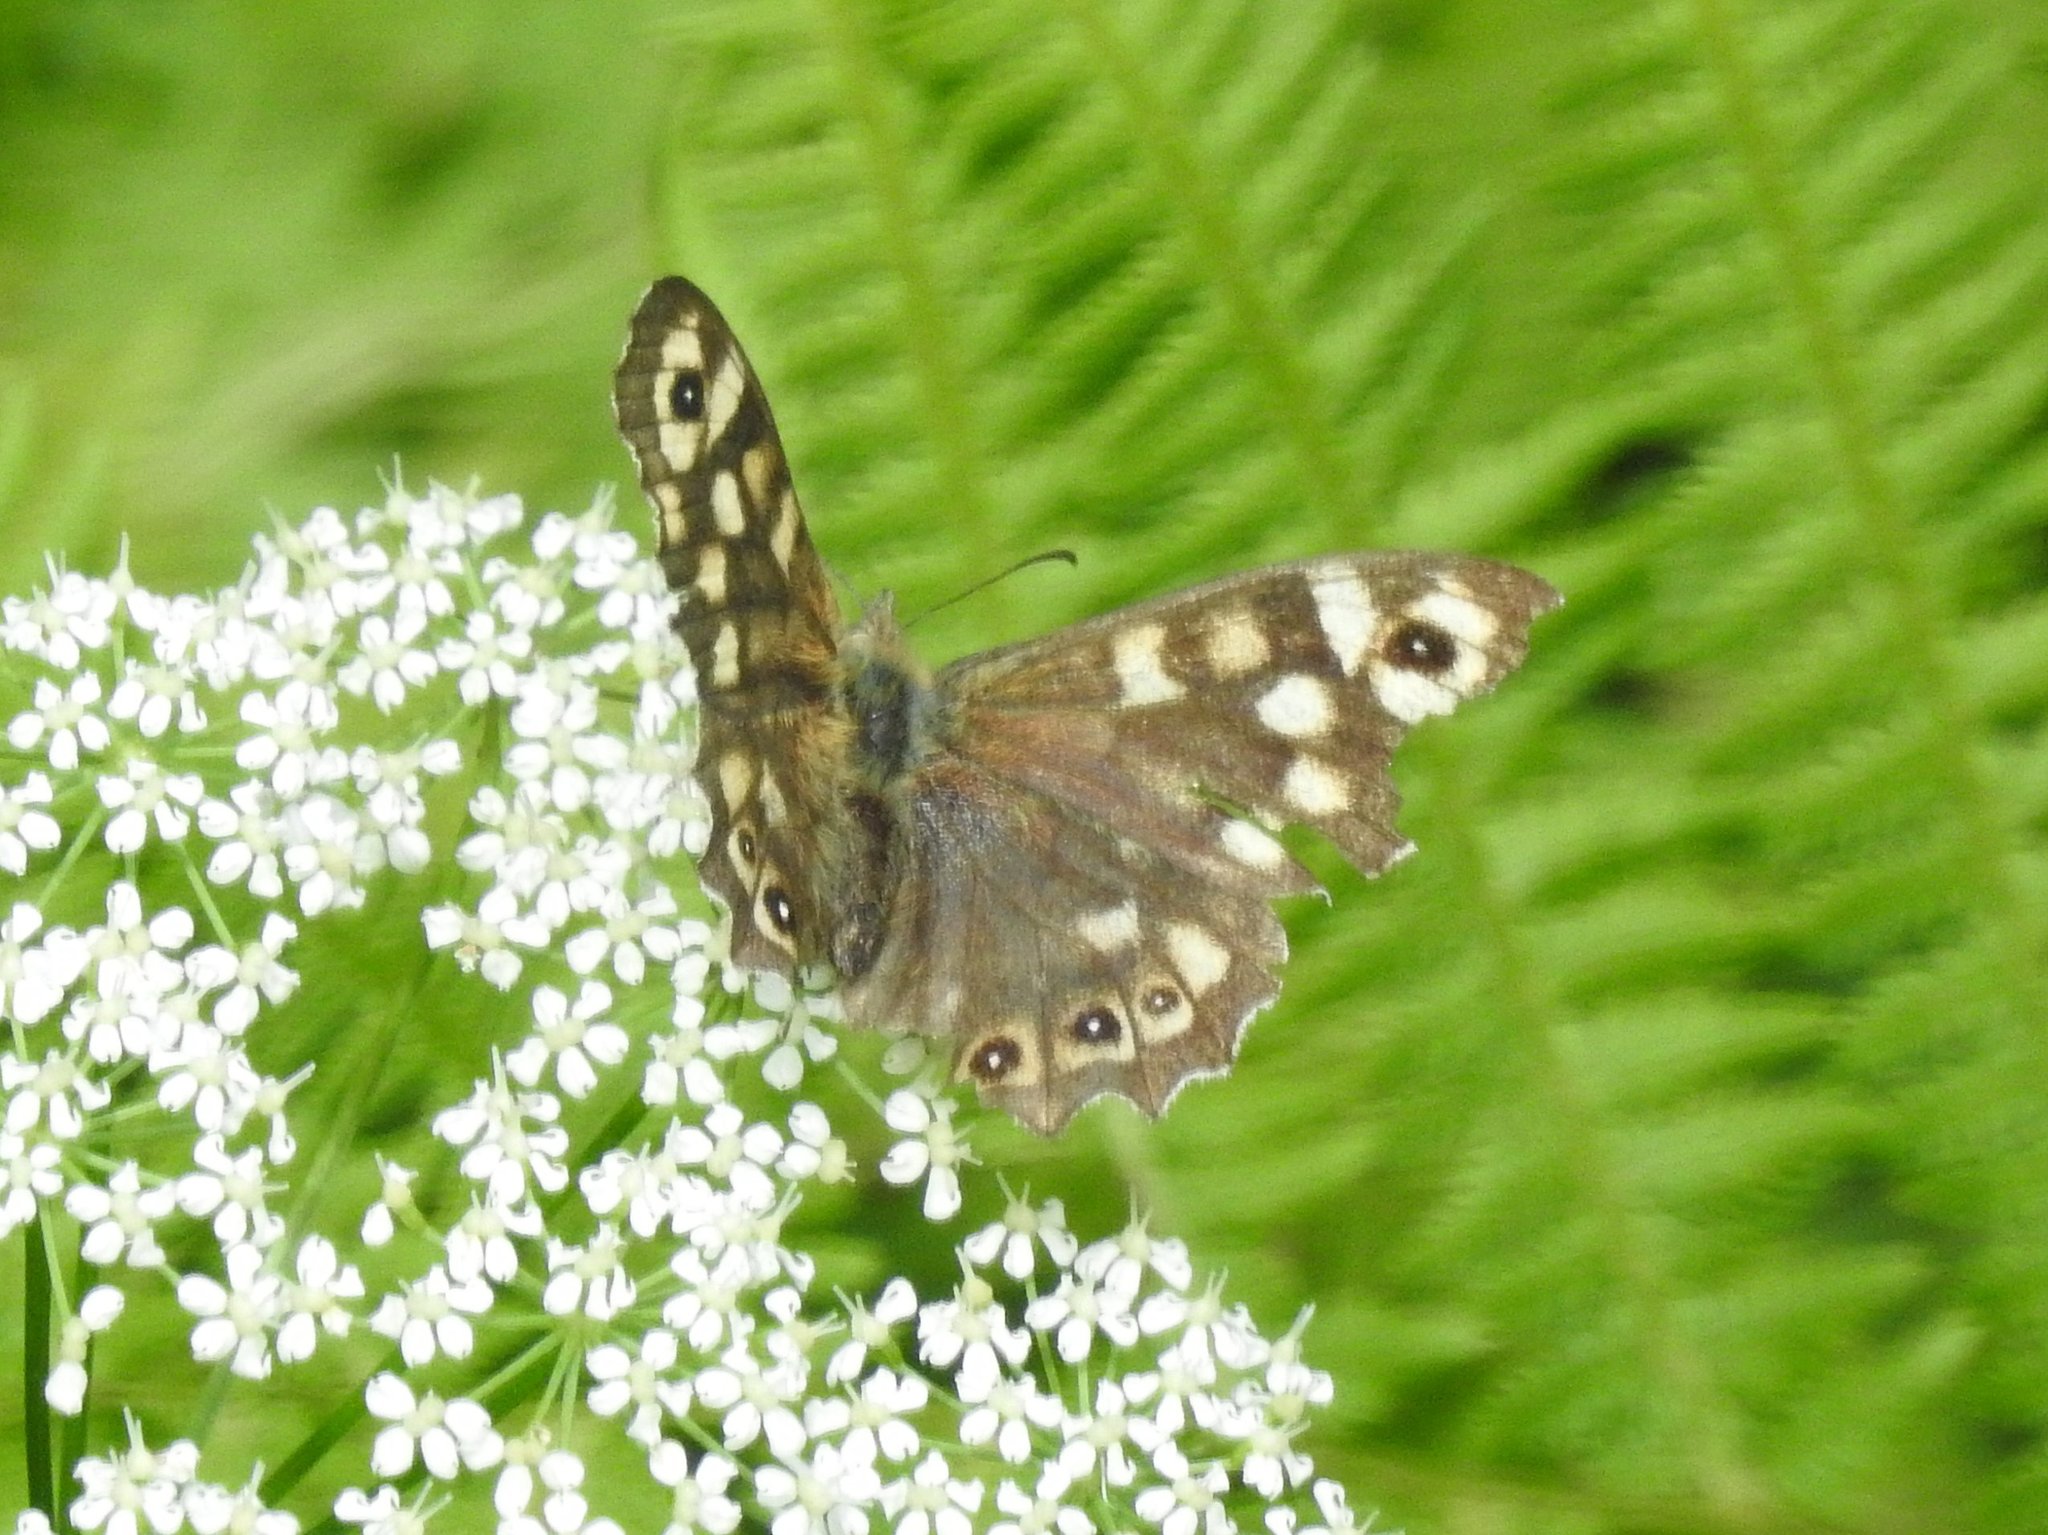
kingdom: Animalia
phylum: Arthropoda
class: Insecta
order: Lepidoptera
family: Nymphalidae
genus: Pararge
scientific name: Pararge aegeria
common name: Speckled wood
